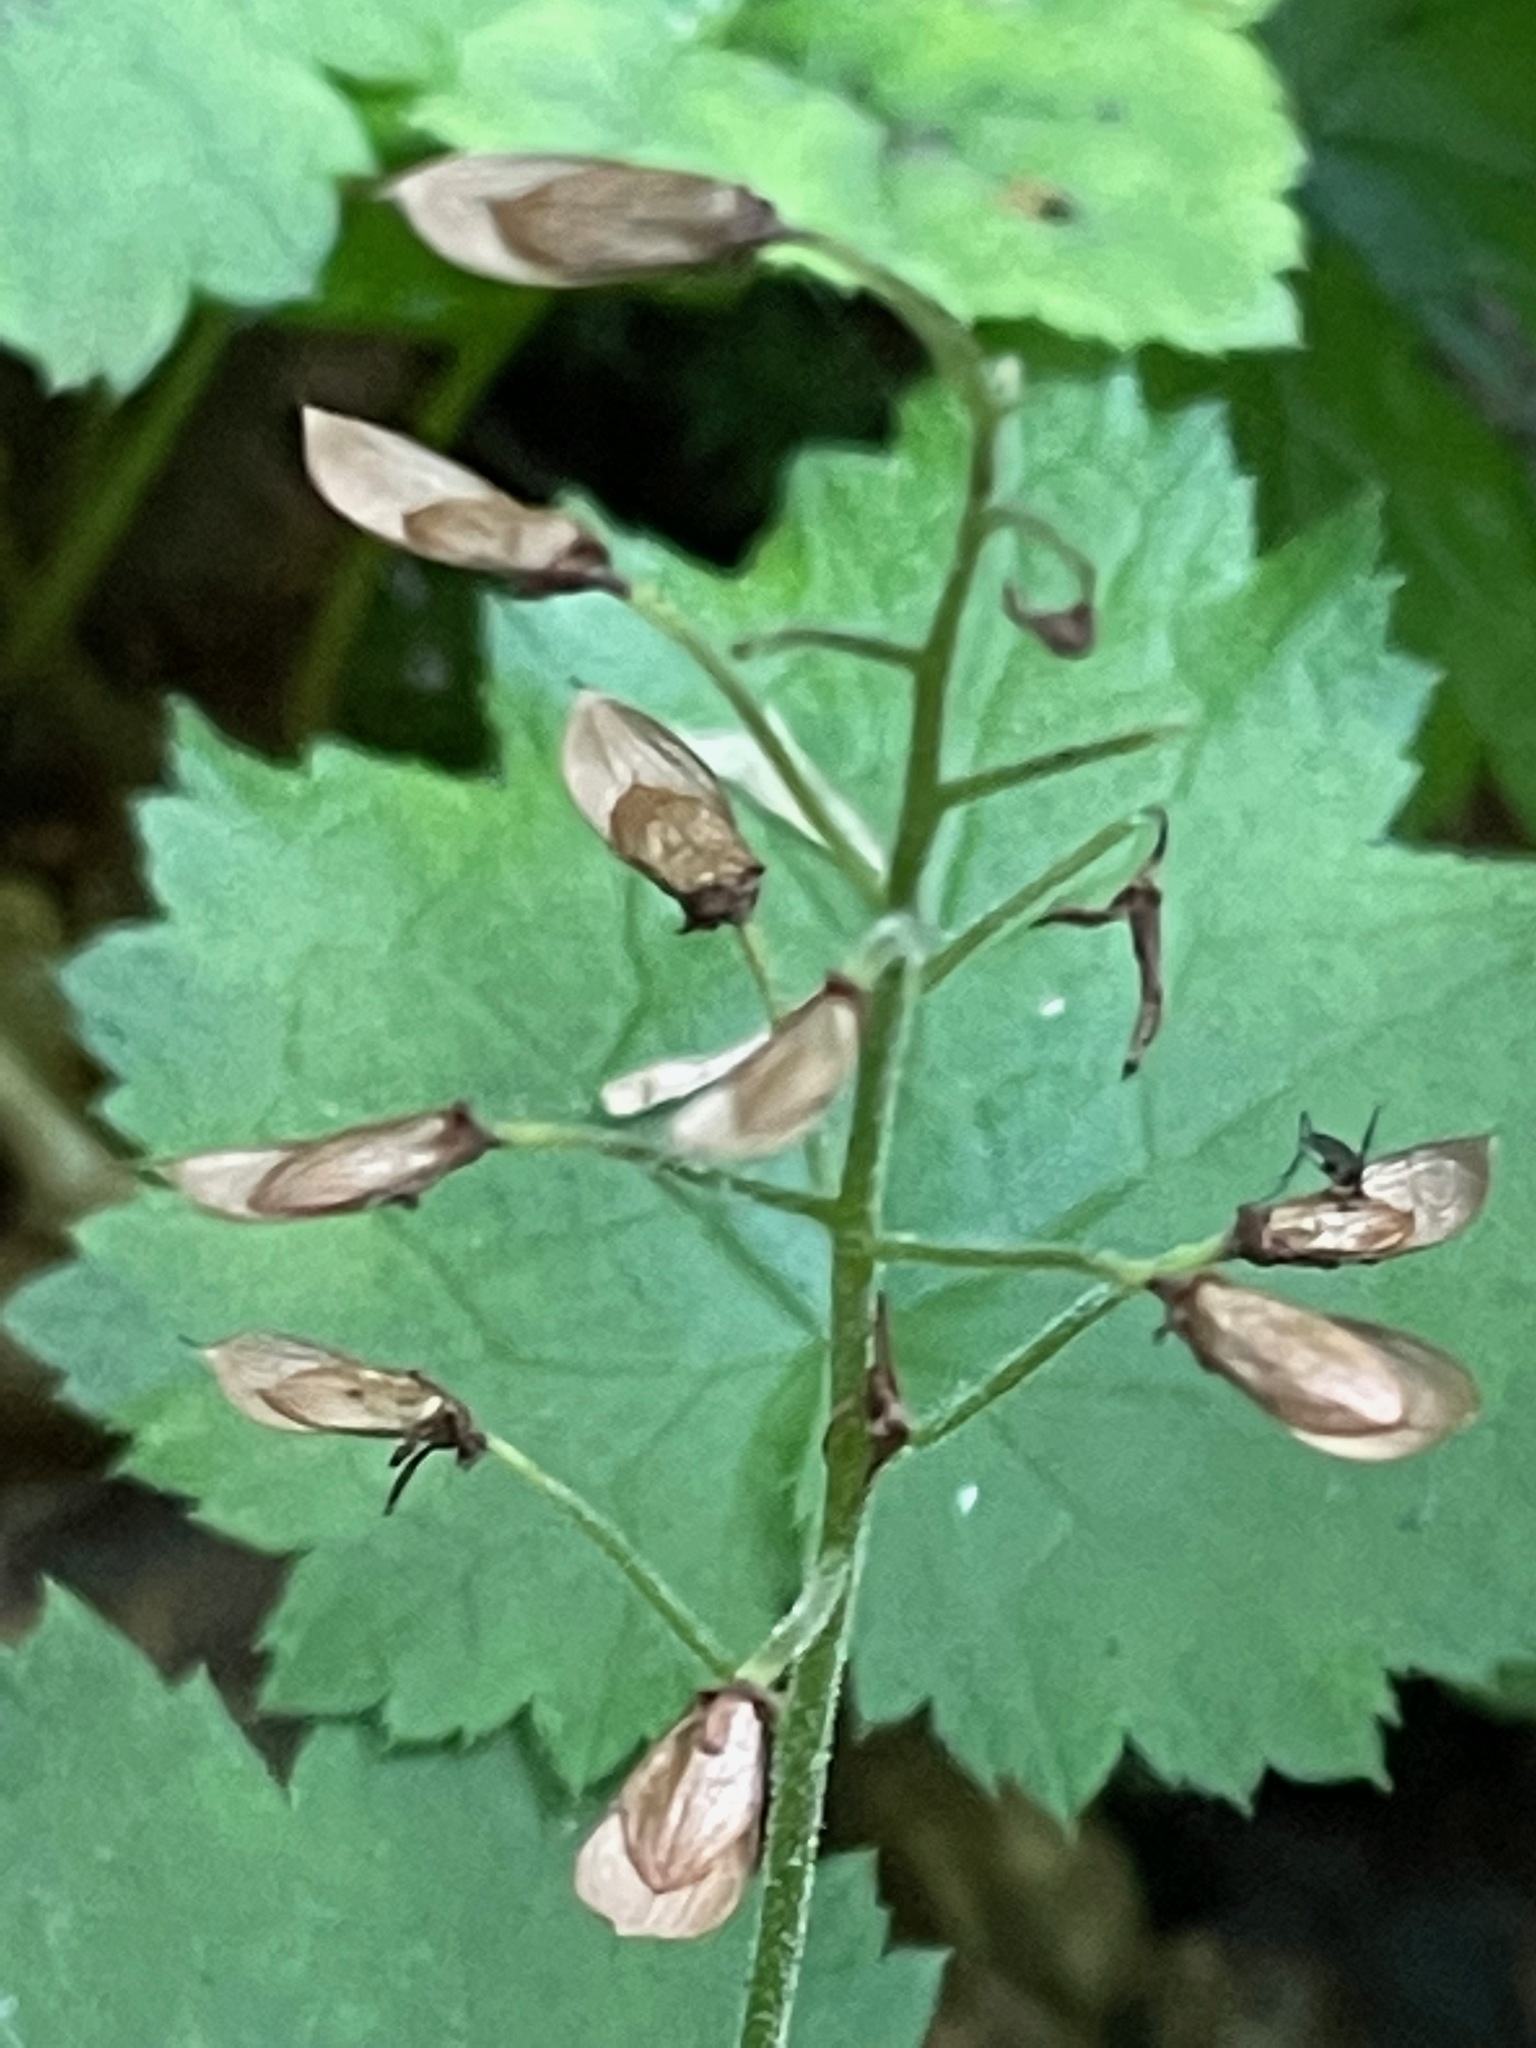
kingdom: Plantae
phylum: Tracheophyta
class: Magnoliopsida
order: Saxifragales
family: Saxifragaceae
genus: Tiarella
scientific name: Tiarella stolonifera
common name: Stoloniferous foamflower
